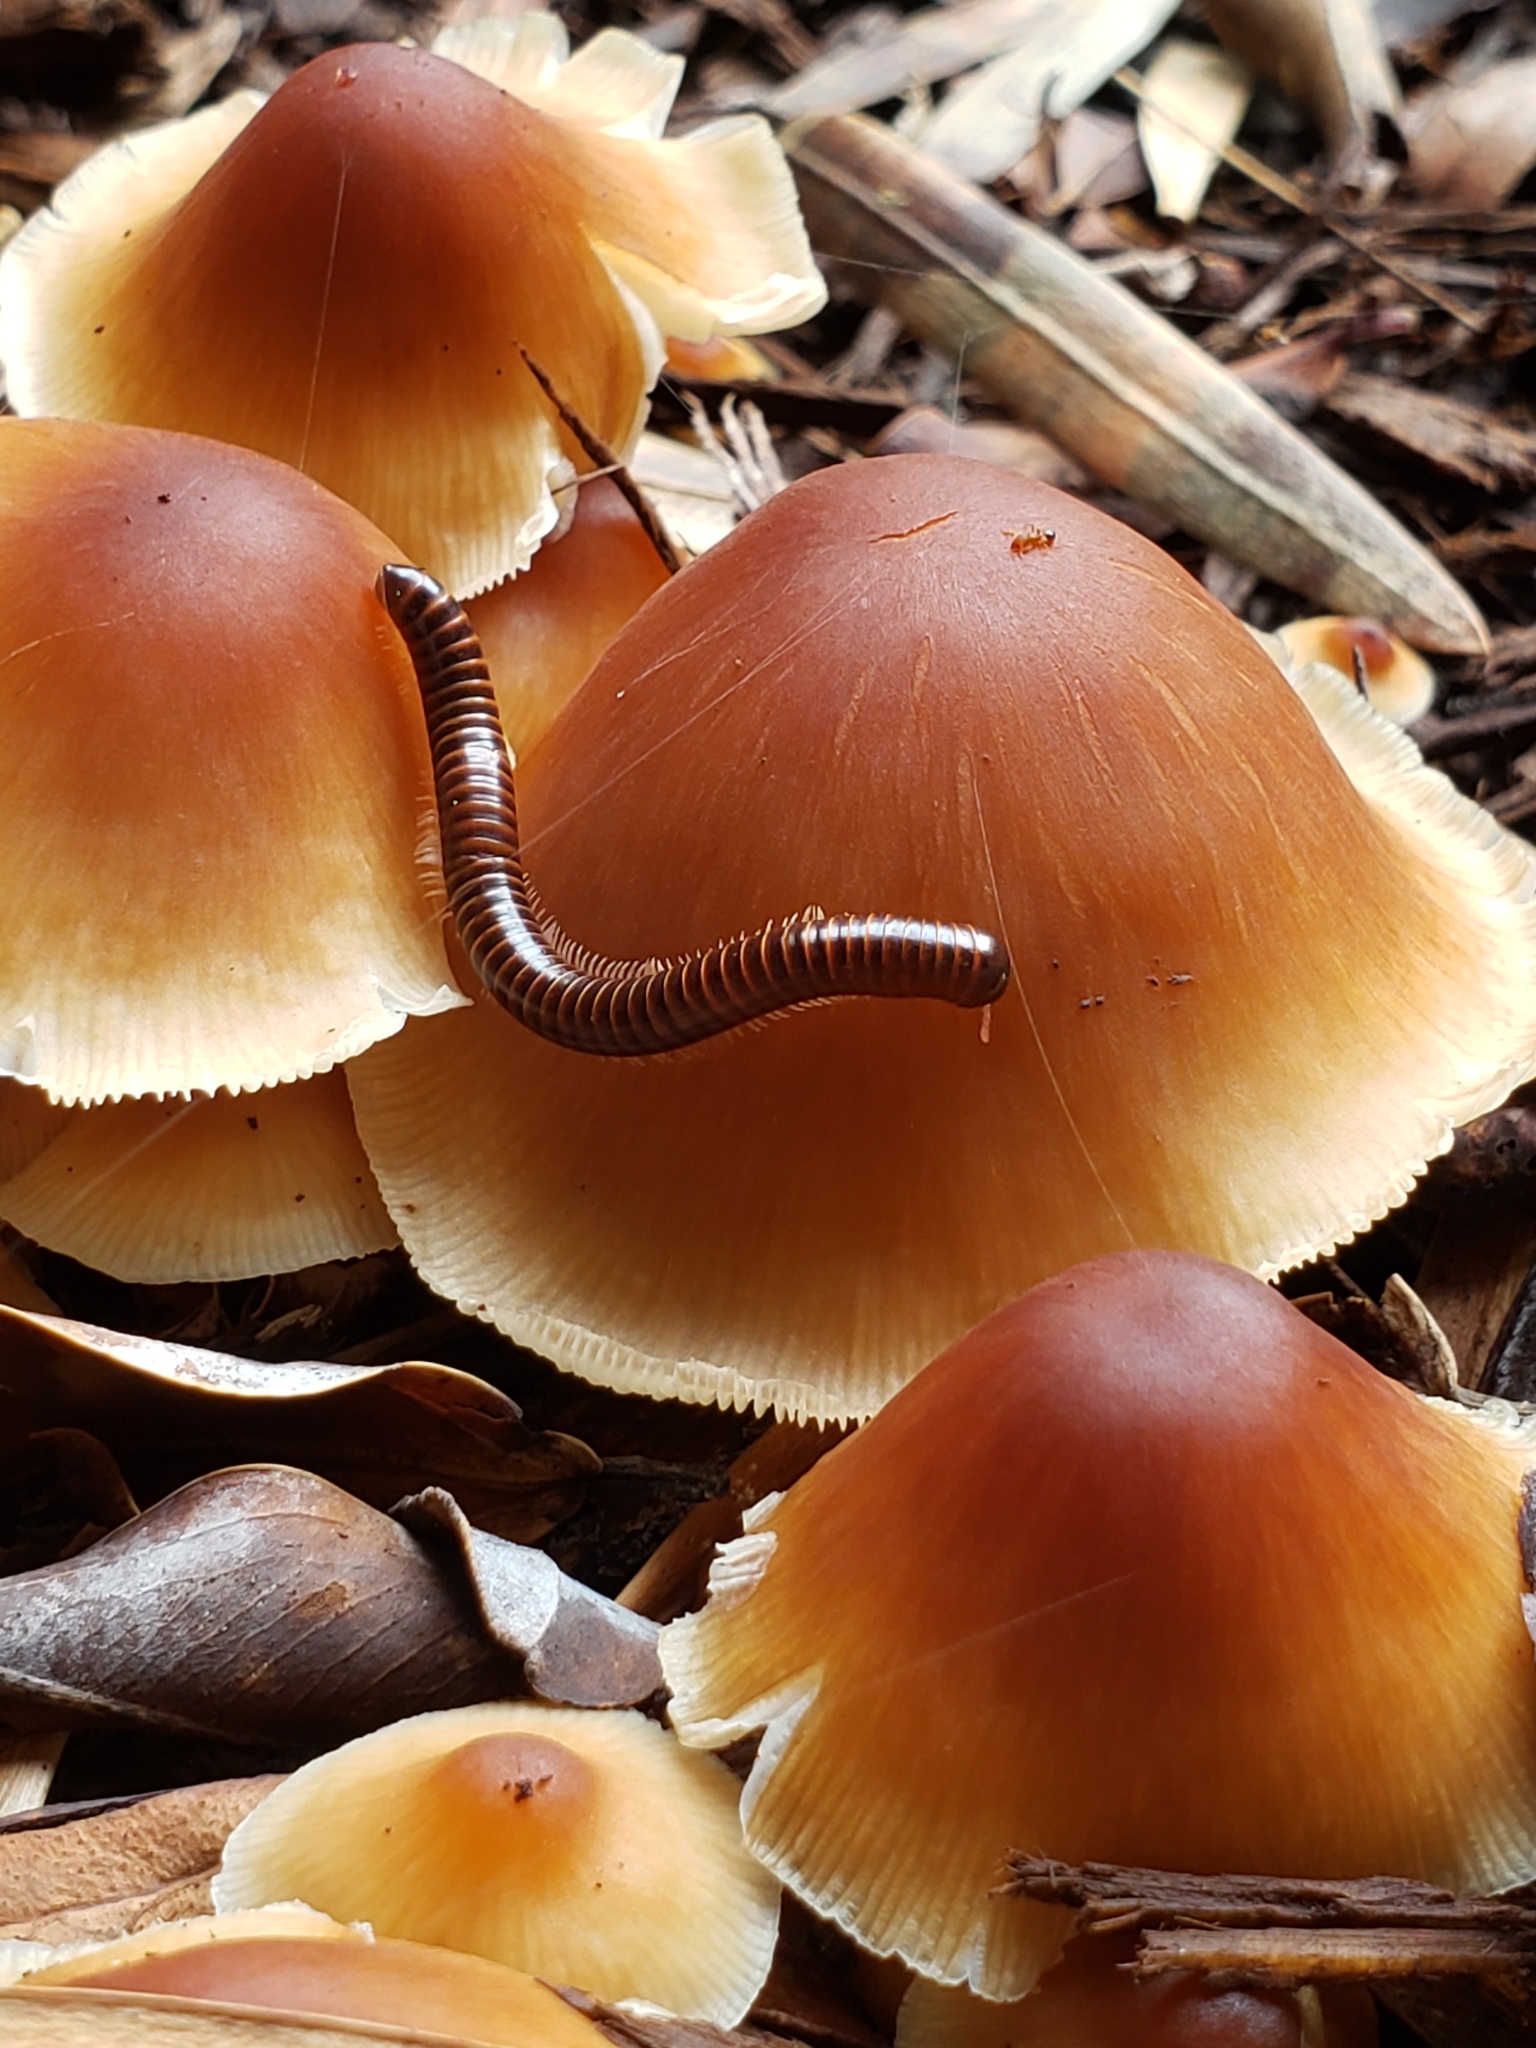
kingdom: Animalia
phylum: Arthropoda
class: Diplopoda
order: Spirobolida
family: Pachybolidae
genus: Leptogoniulus
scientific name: Leptogoniulus sorornus
